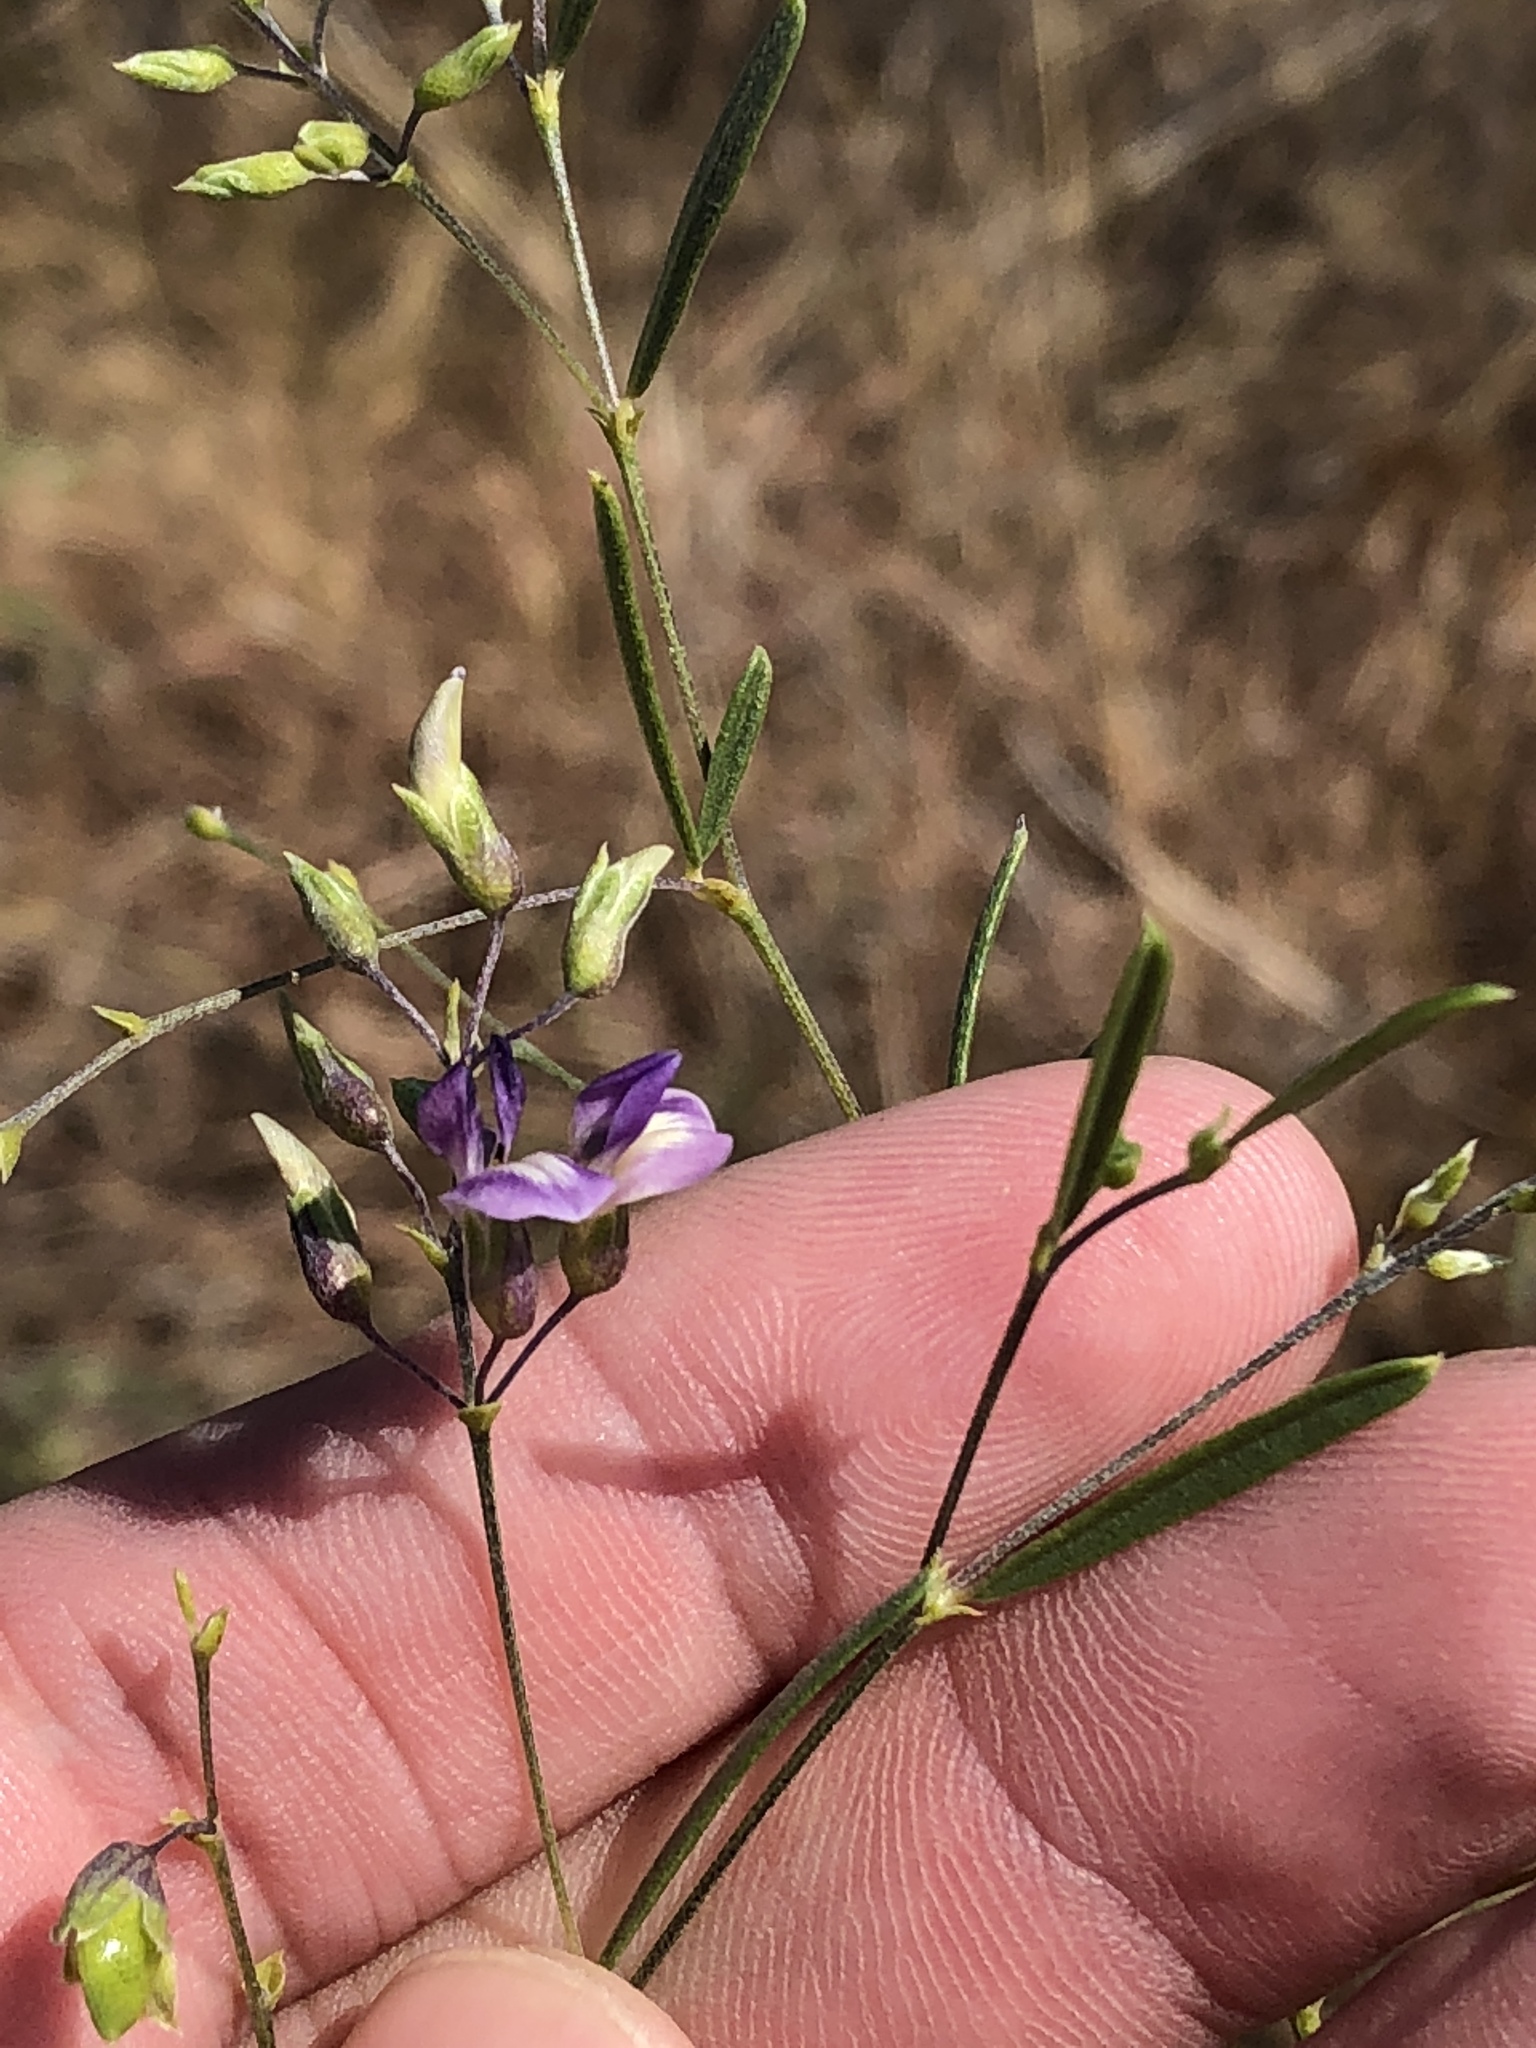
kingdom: Plantae
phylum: Tracheophyta
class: Magnoliopsida
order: Fabales
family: Fabaceae
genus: Pediomelum
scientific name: Pediomelum linearifolium
